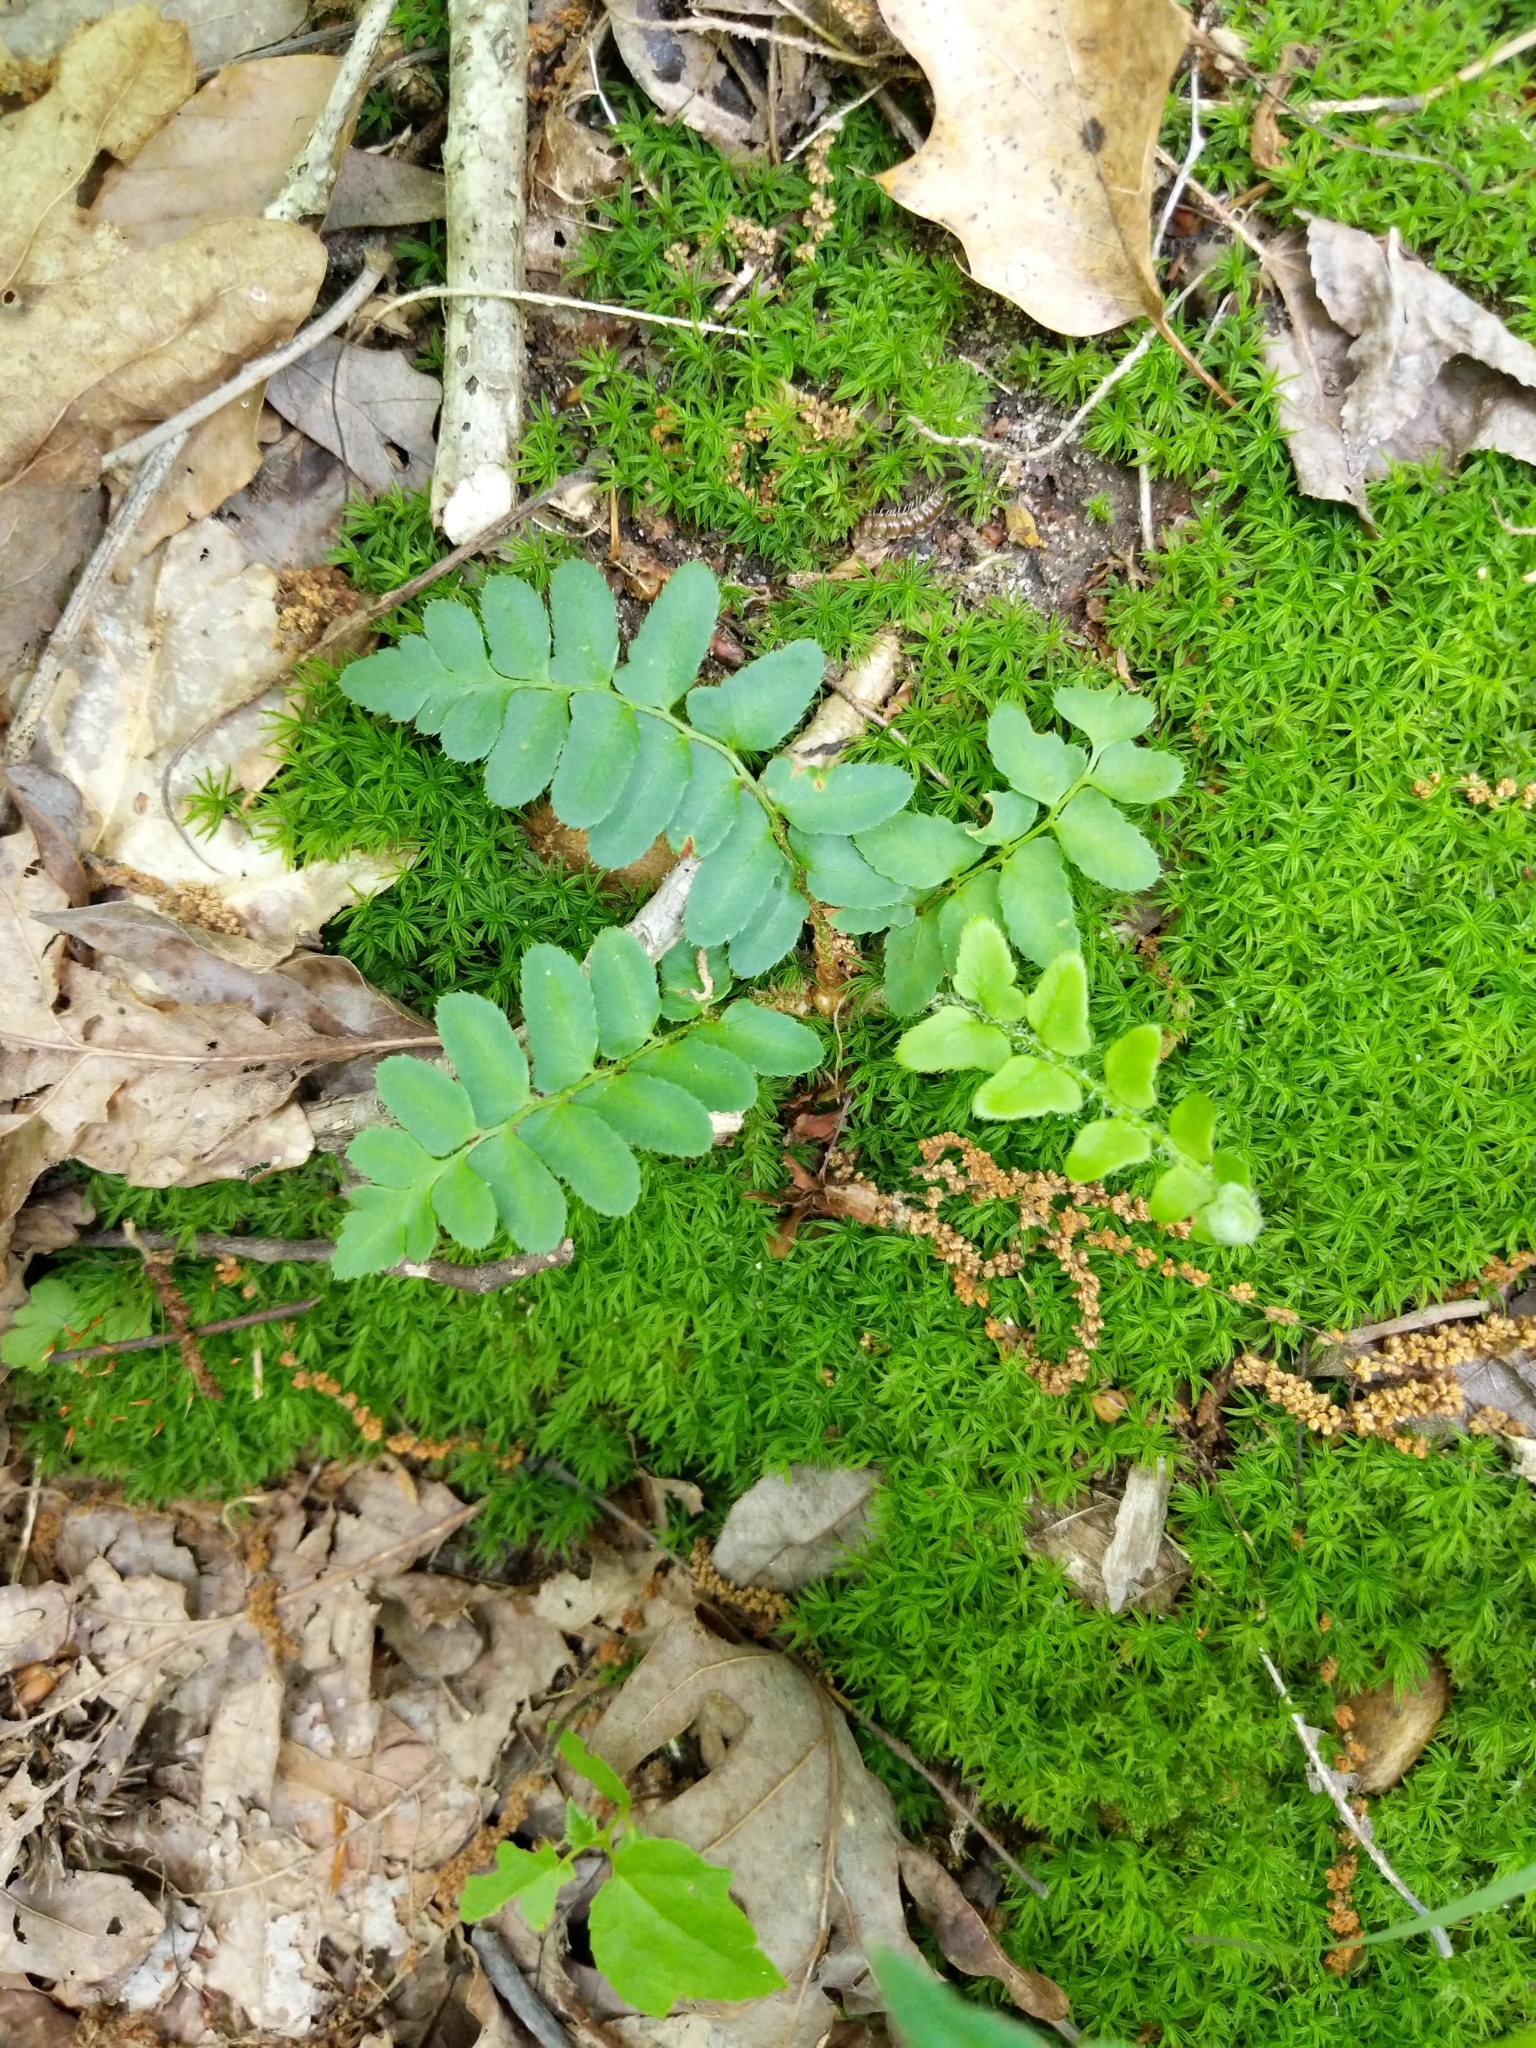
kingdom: Plantae
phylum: Tracheophyta
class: Polypodiopsida
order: Polypodiales
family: Dryopteridaceae
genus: Polystichum
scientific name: Polystichum acrostichoides
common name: Christmas fern
